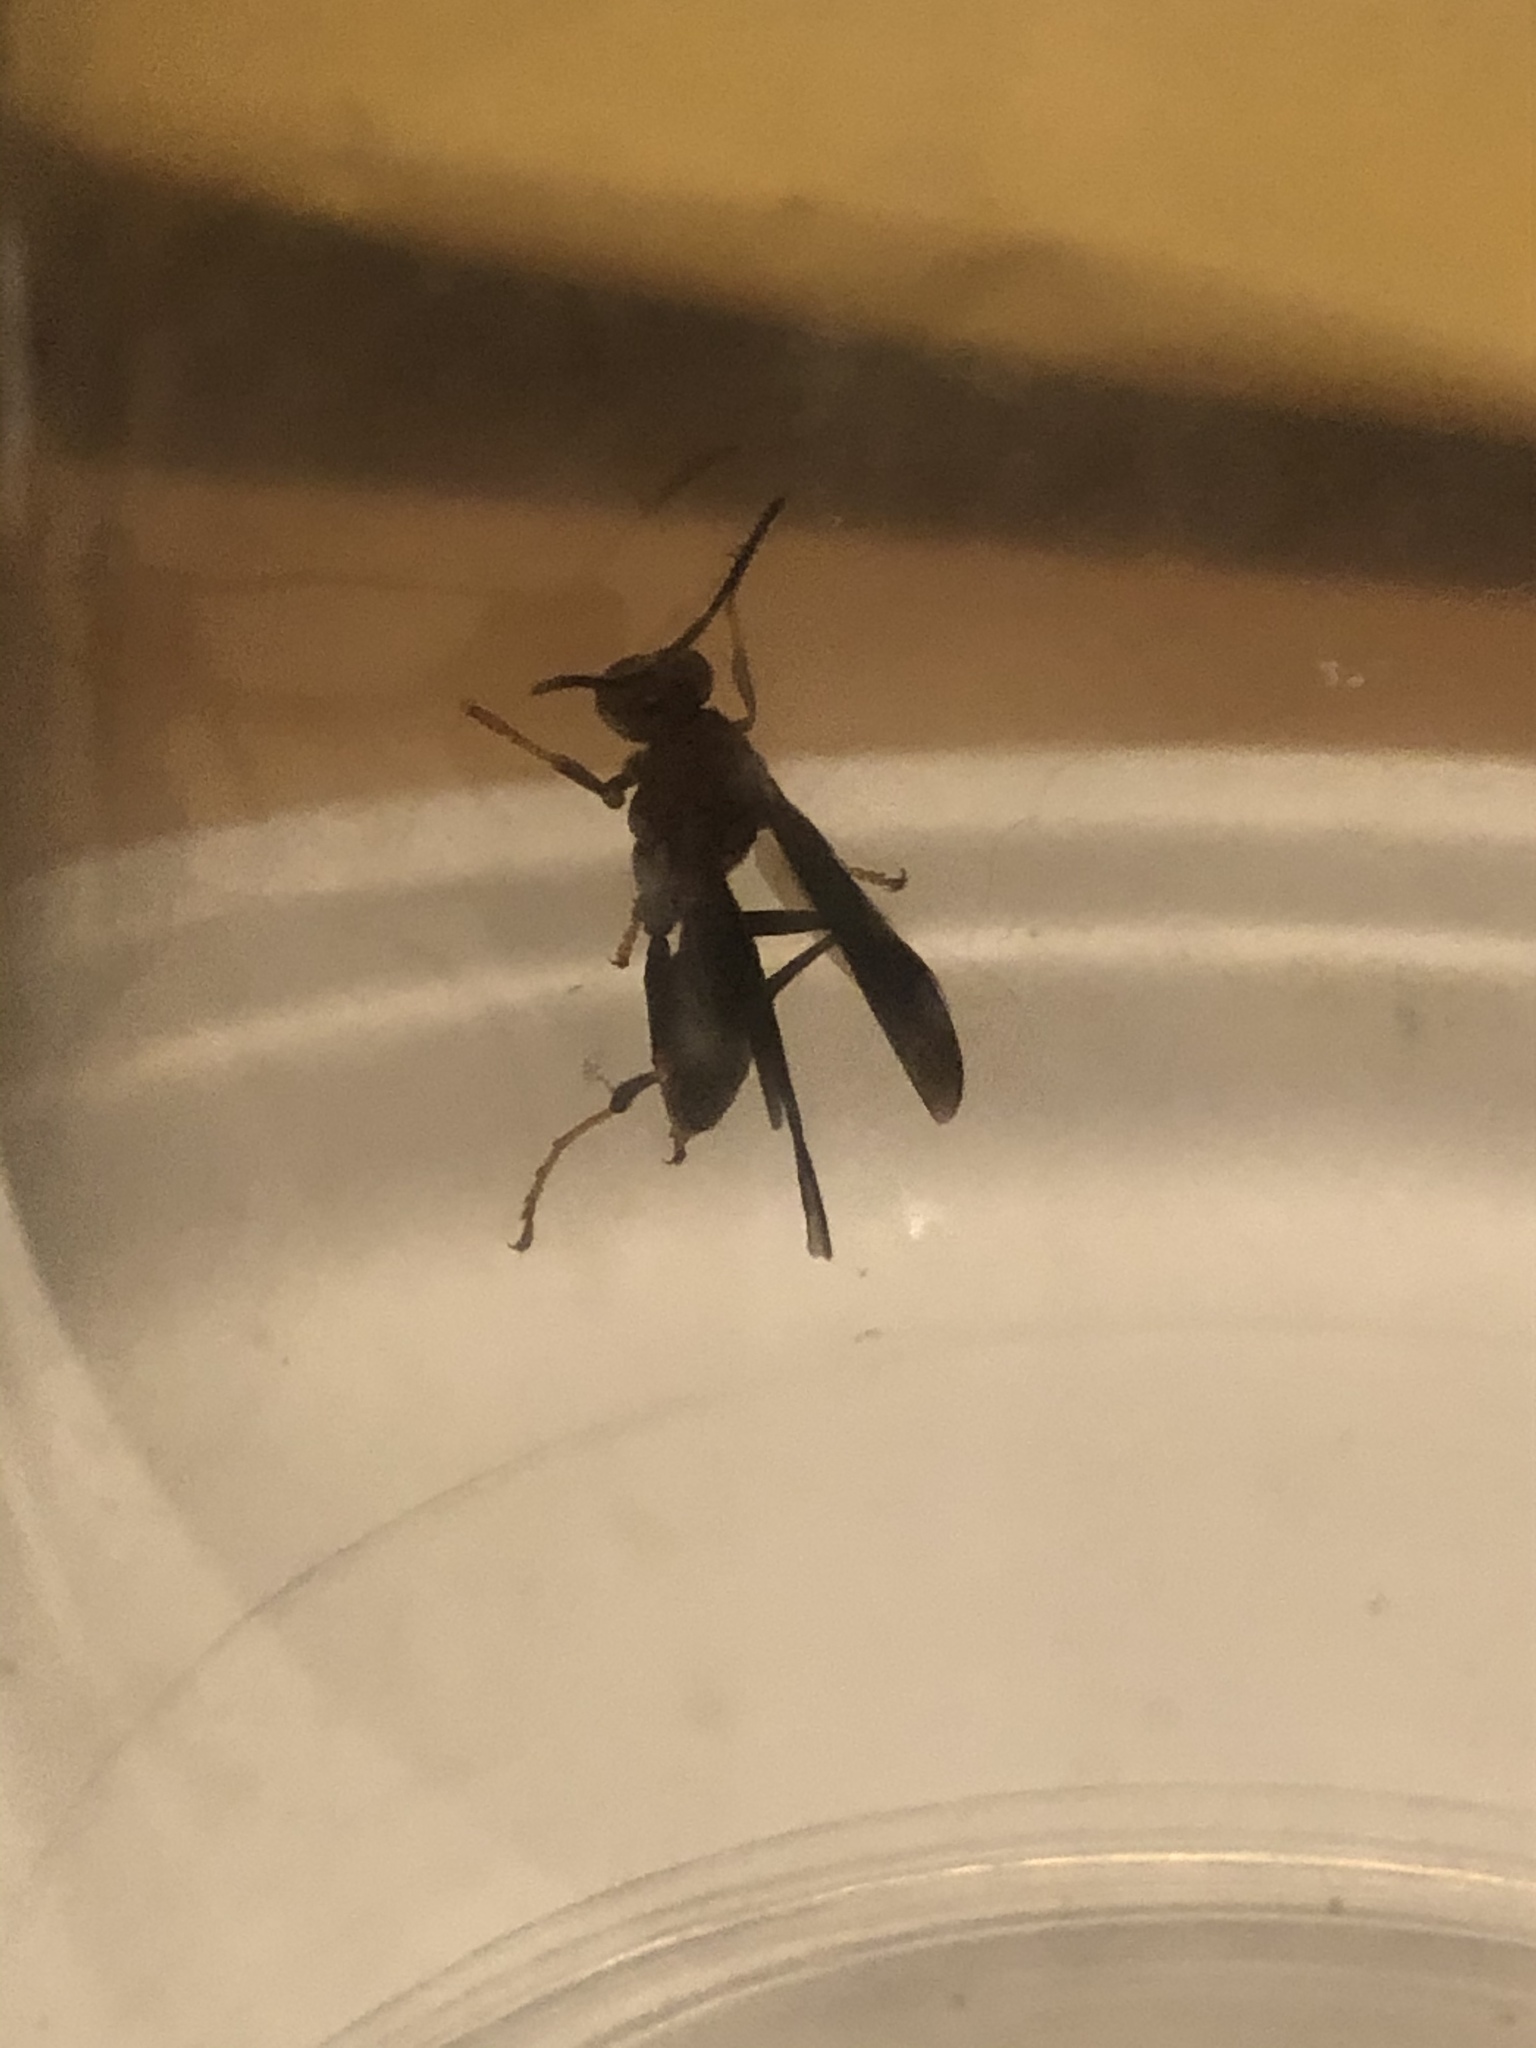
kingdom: Animalia
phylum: Arthropoda
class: Insecta
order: Hymenoptera
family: Vespidae
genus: Fuscopolistes
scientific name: Fuscopolistes
